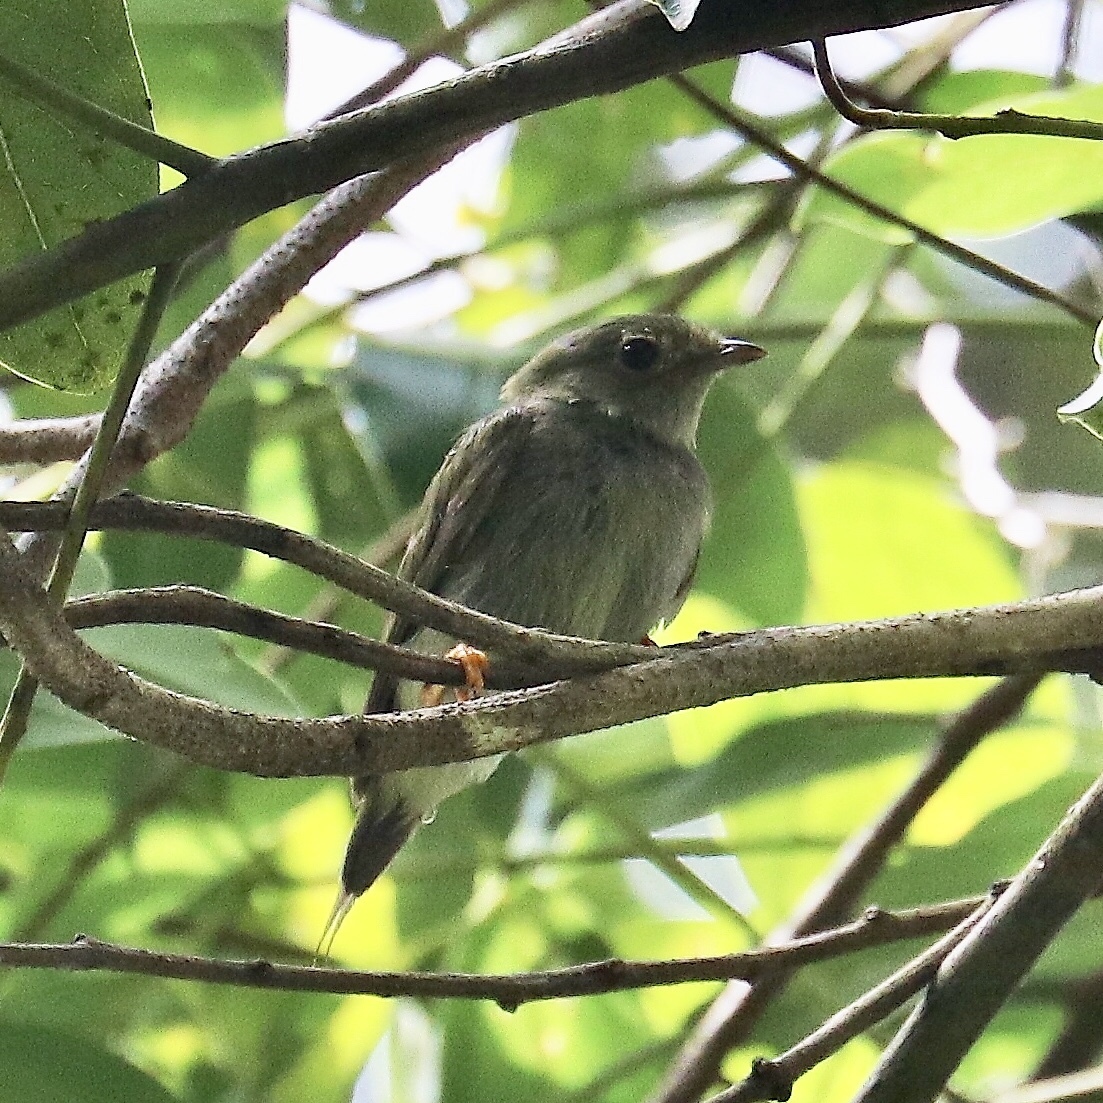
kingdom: Animalia
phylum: Chordata
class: Aves
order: Passeriformes
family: Pipridae
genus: Chiroxiphia
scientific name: Chiroxiphia lanceolata
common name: Lance-tailed manakin
